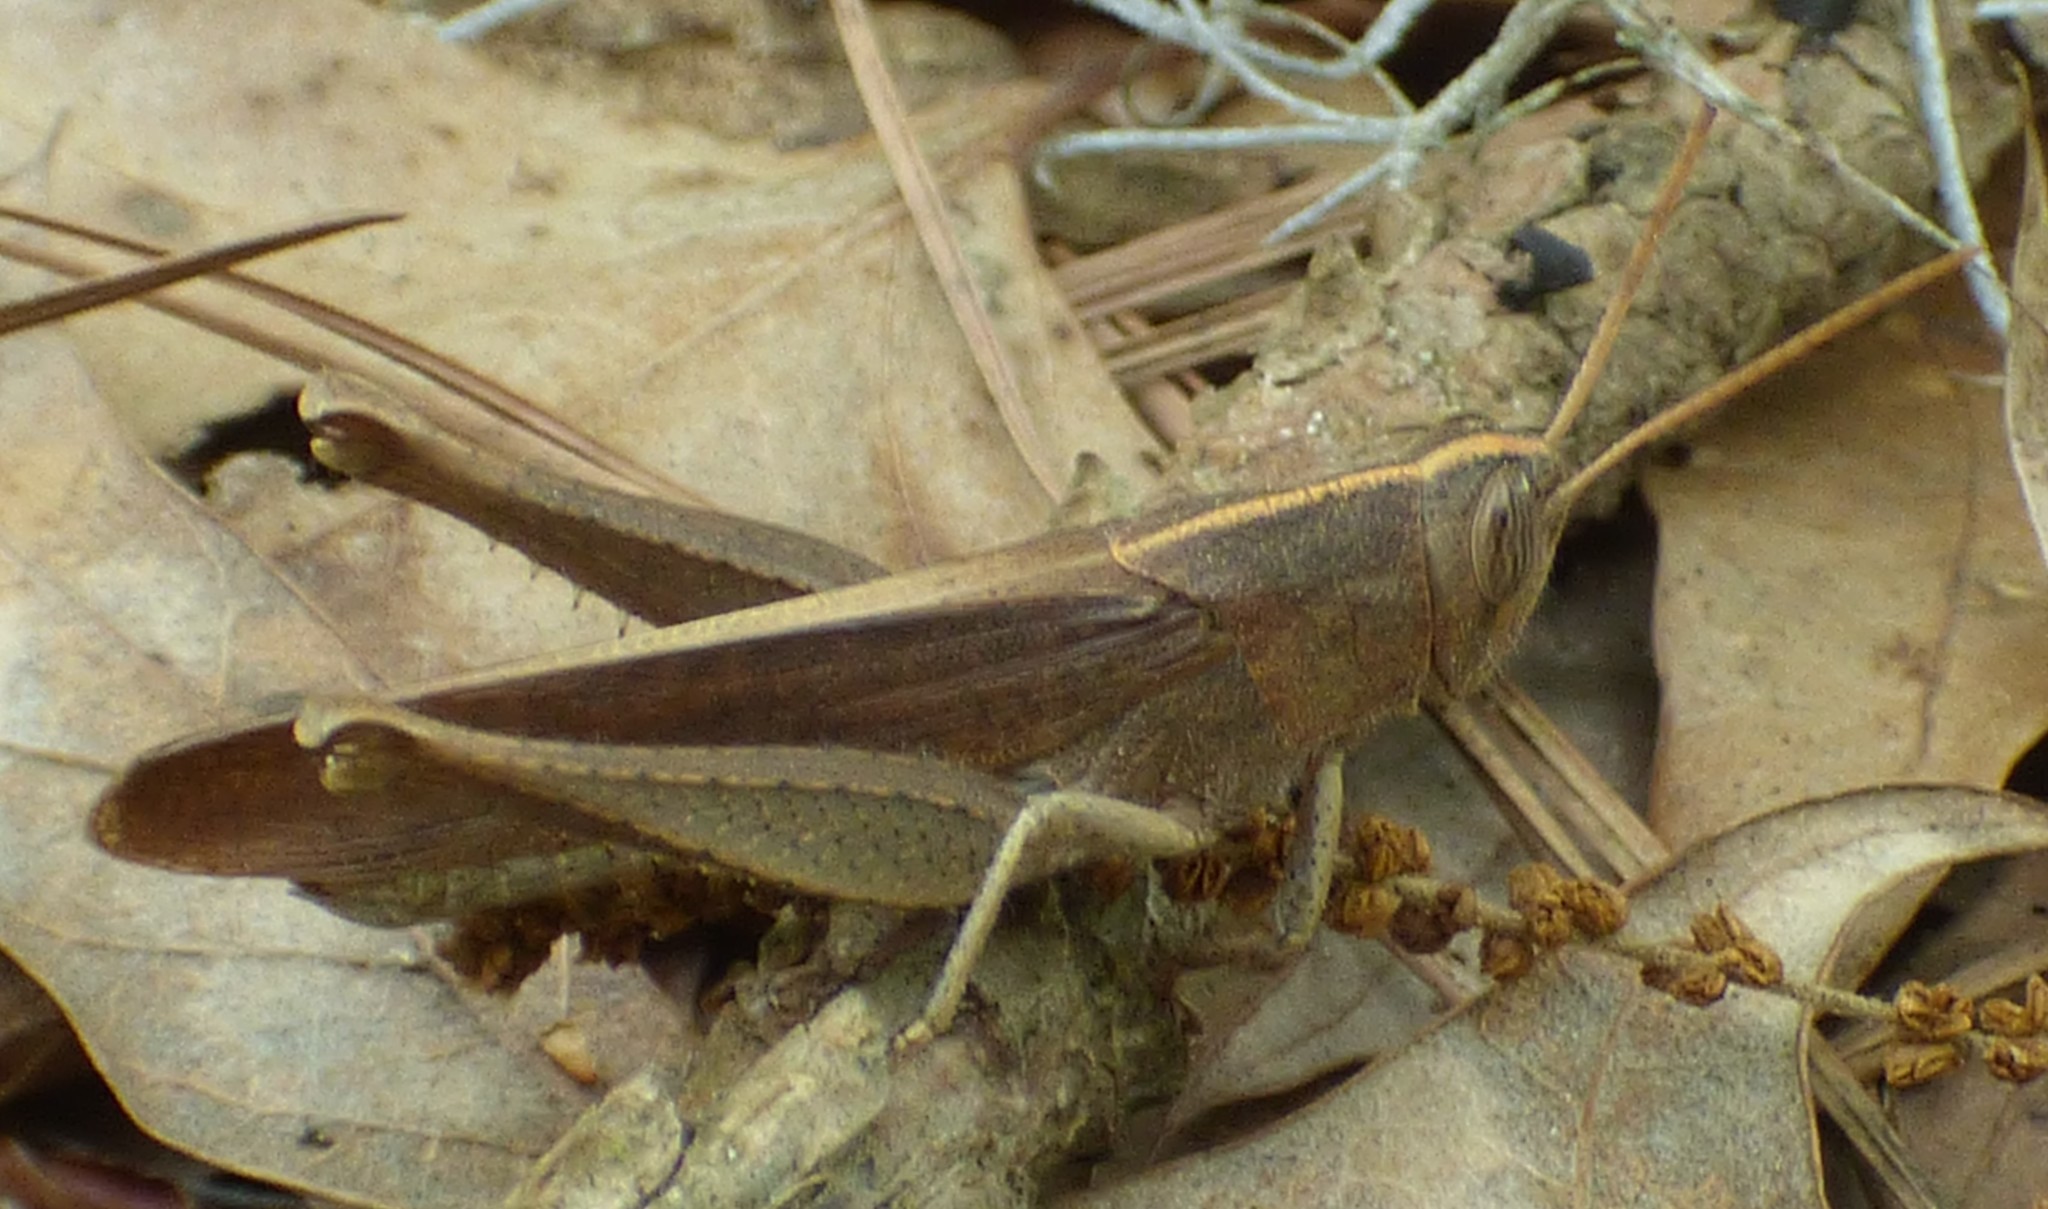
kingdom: Animalia
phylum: Arthropoda
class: Insecta
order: Orthoptera
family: Acrididae
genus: Schistocerca
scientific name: Schistocerca damnifica
